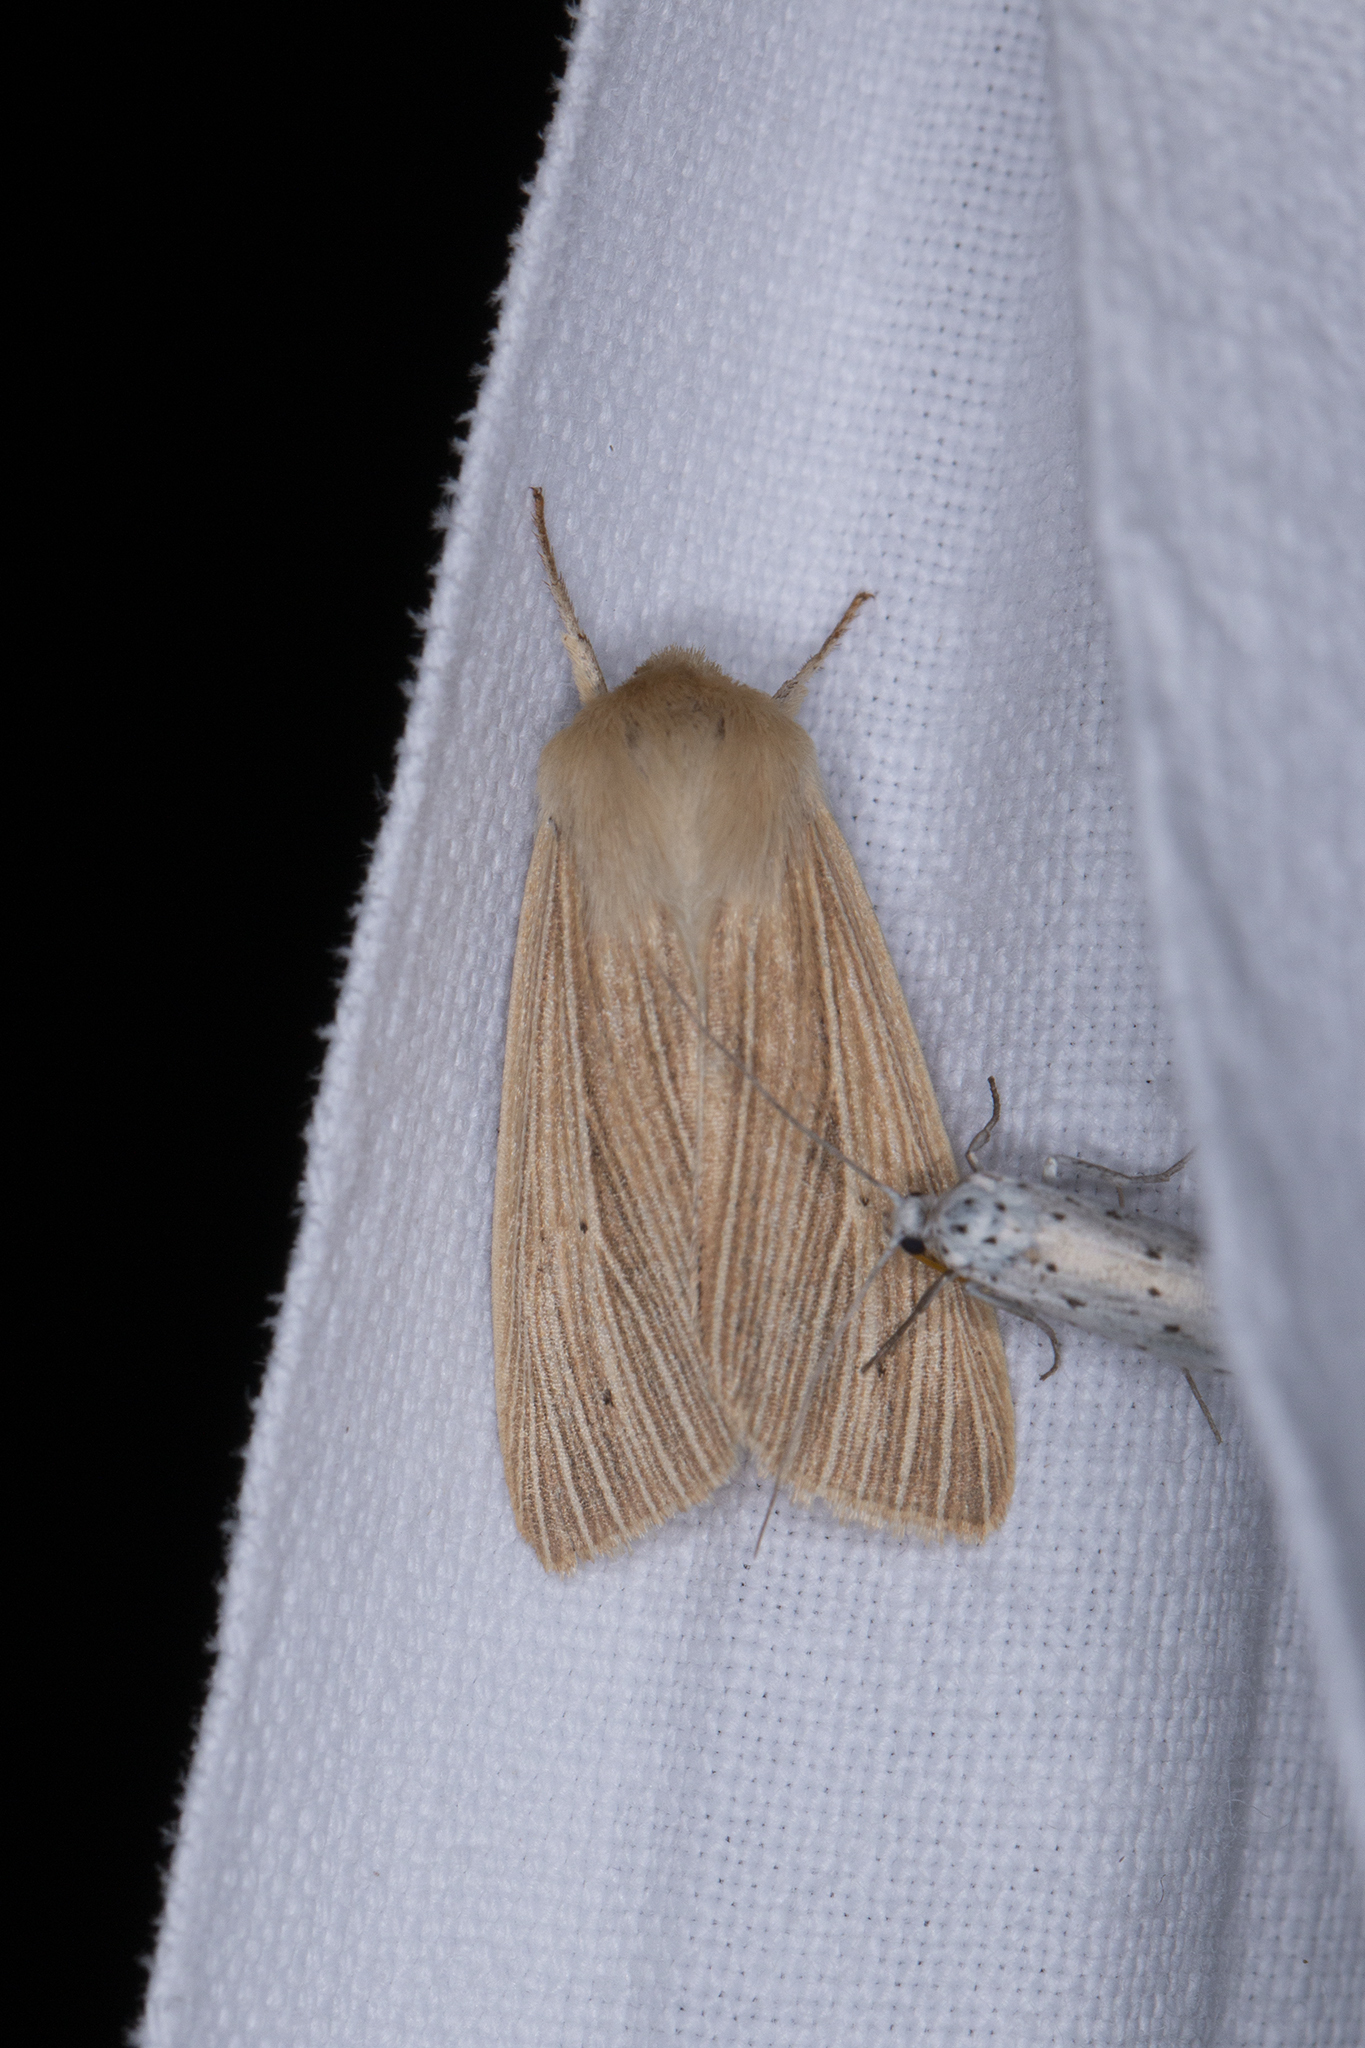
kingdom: Animalia
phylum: Arthropoda
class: Insecta
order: Lepidoptera
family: Noctuidae
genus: Mythimna
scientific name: Mythimna pallens
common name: Common wainscot
